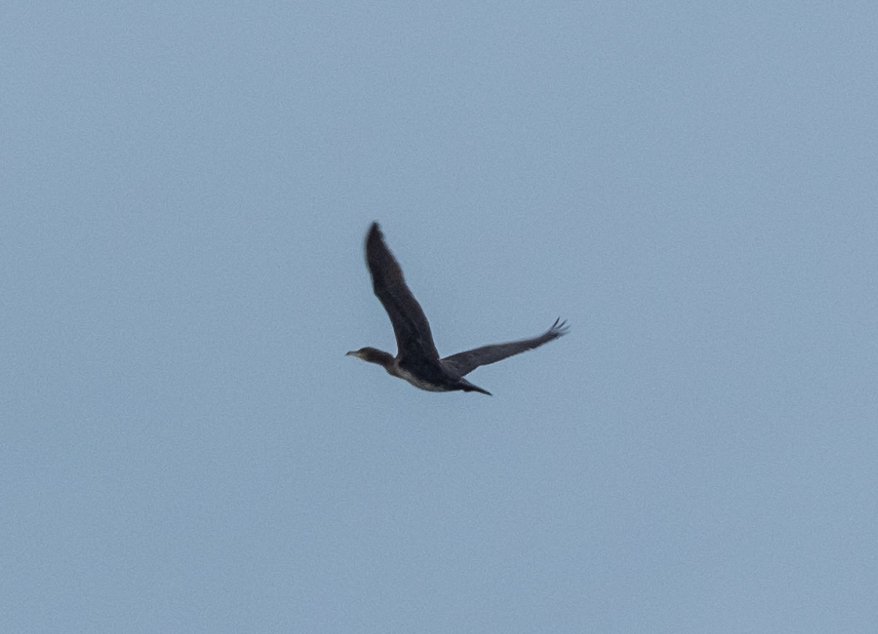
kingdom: Animalia
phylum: Chordata
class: Aves
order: Suliformes
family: Phalacrocoracidae
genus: Phalacrocorax
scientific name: Phalacrocorax carbo
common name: Great cormorant
